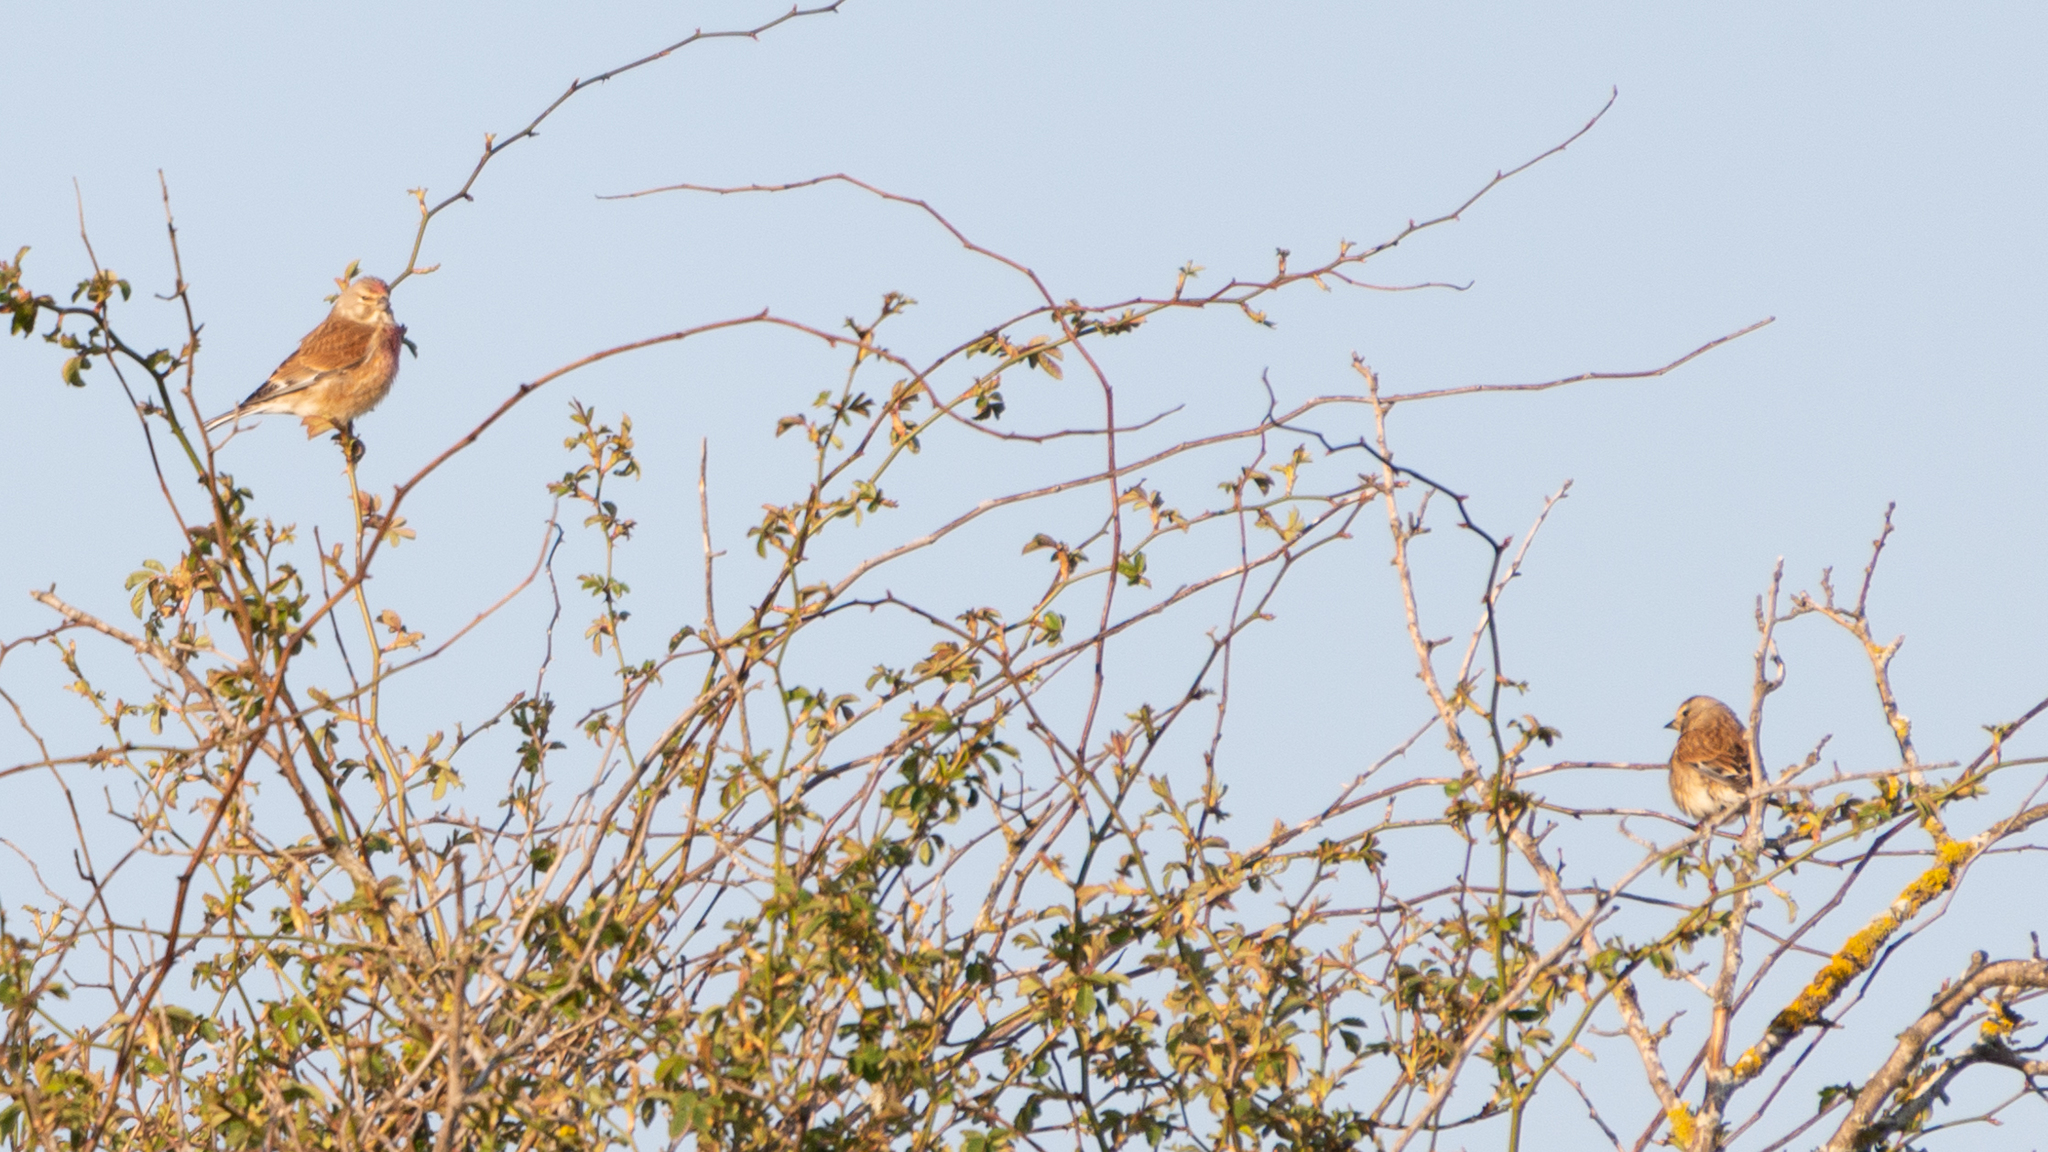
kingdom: Animalia
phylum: Chordata
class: Aves
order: Passeriformes
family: Fringillidae
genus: Linaria
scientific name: Linaria cannabina
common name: Common linnet
